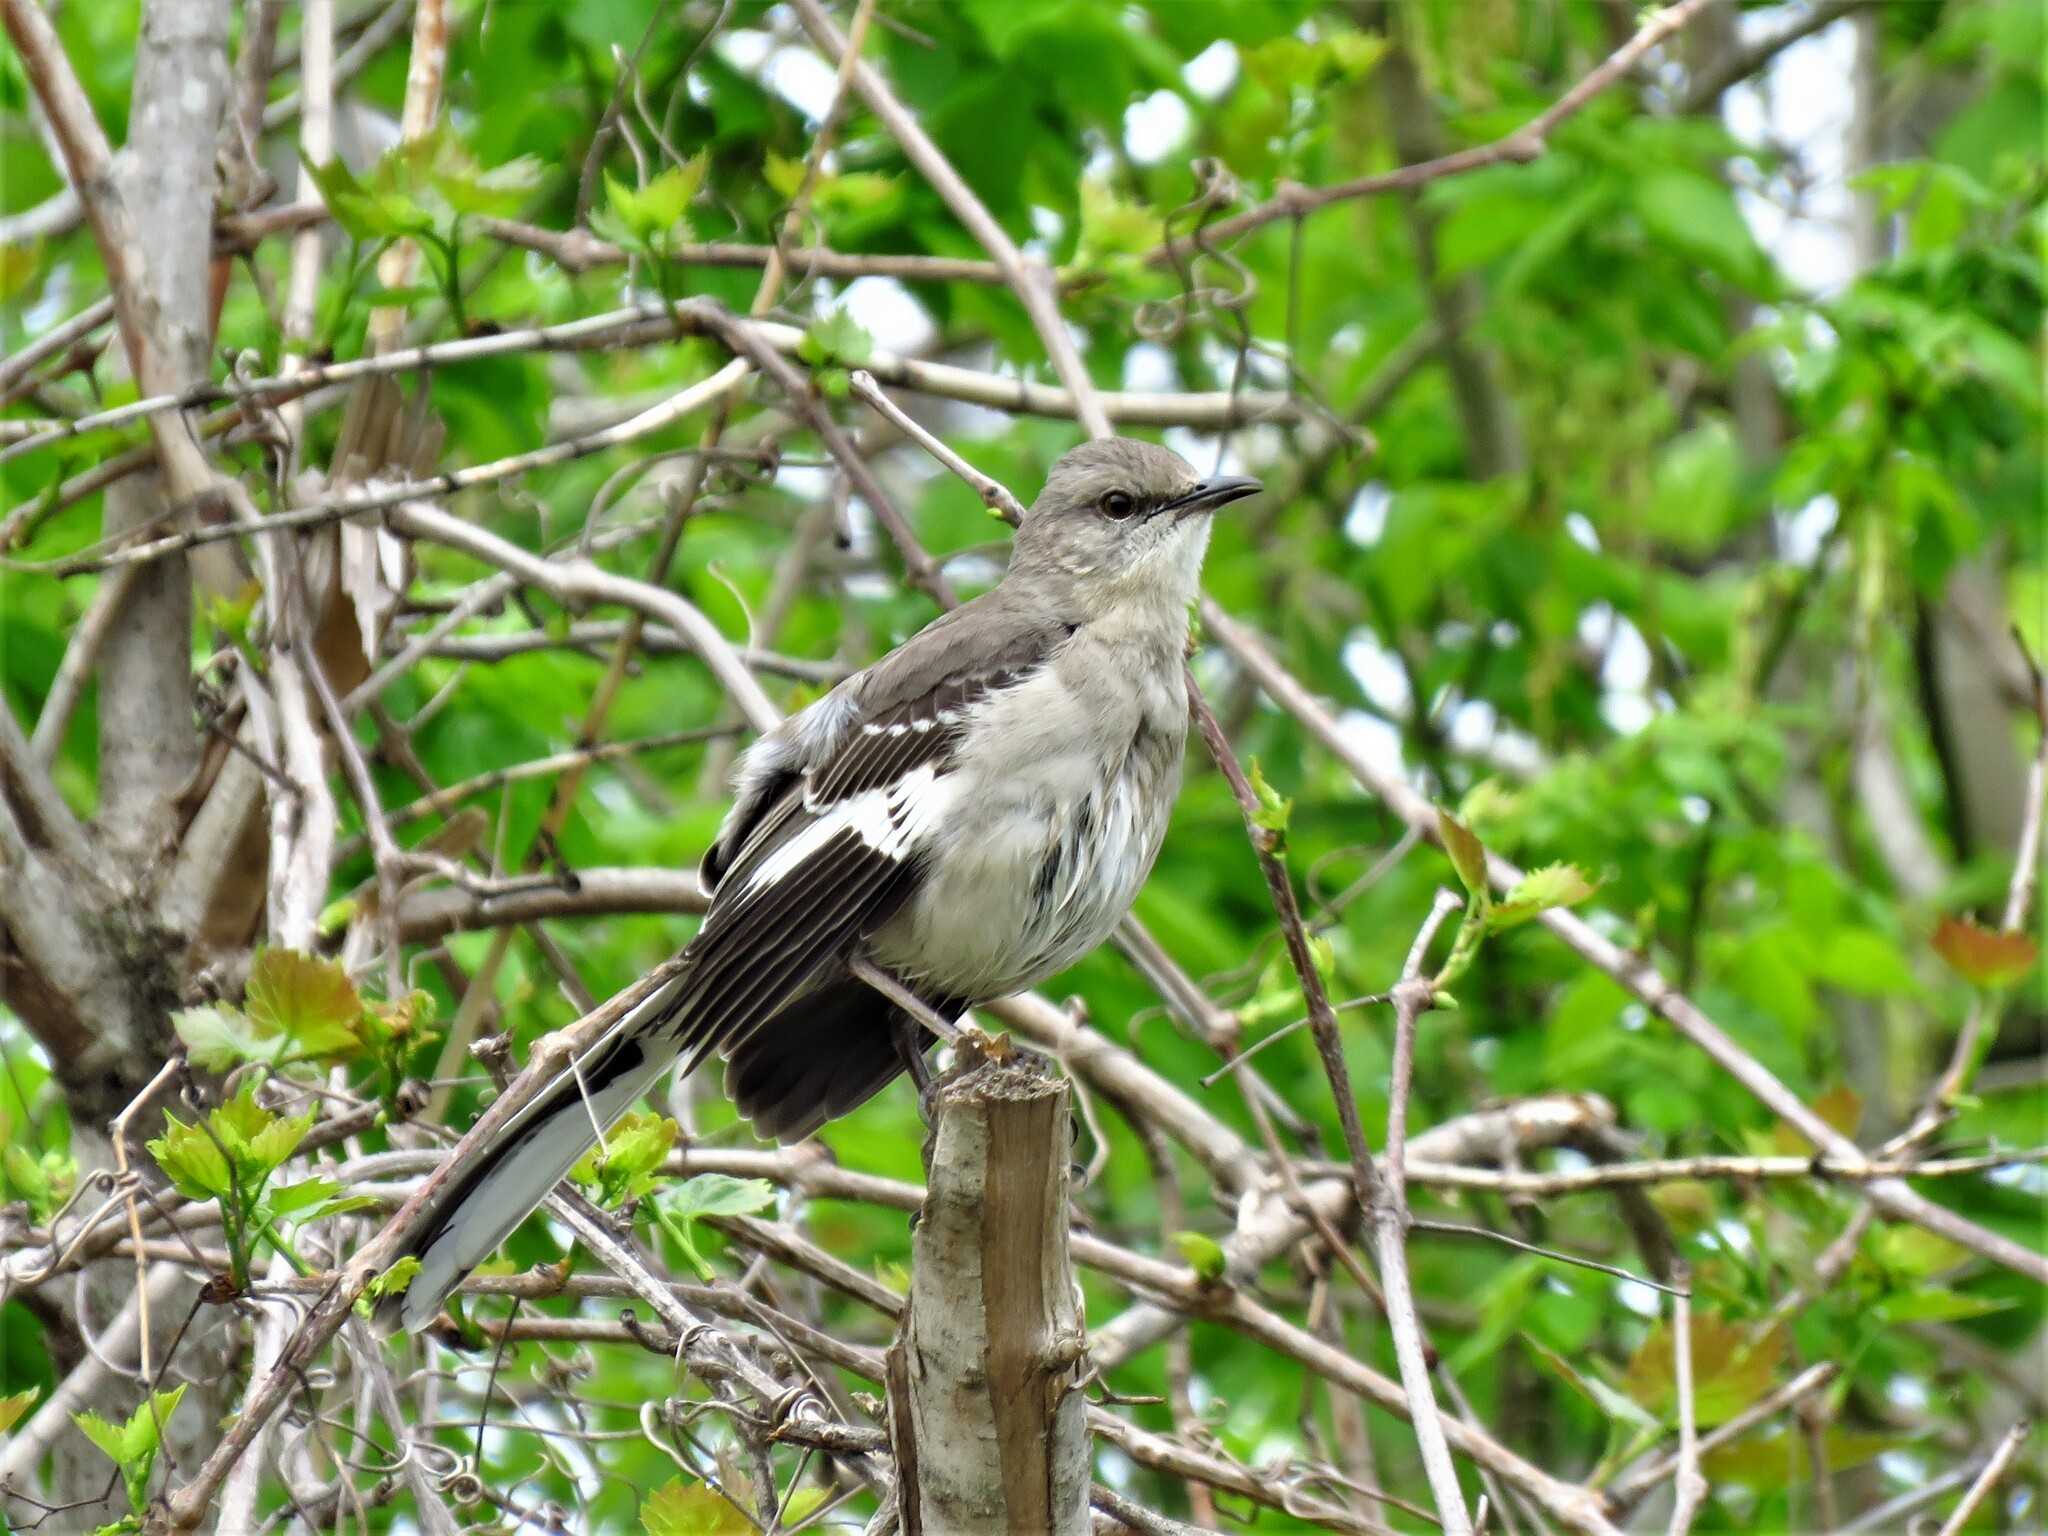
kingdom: Animalia
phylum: Chordata
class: Aves
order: Passeriformes
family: Mimidae
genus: Mimus
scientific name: Mimus polyglottos
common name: Northern mockingbird
